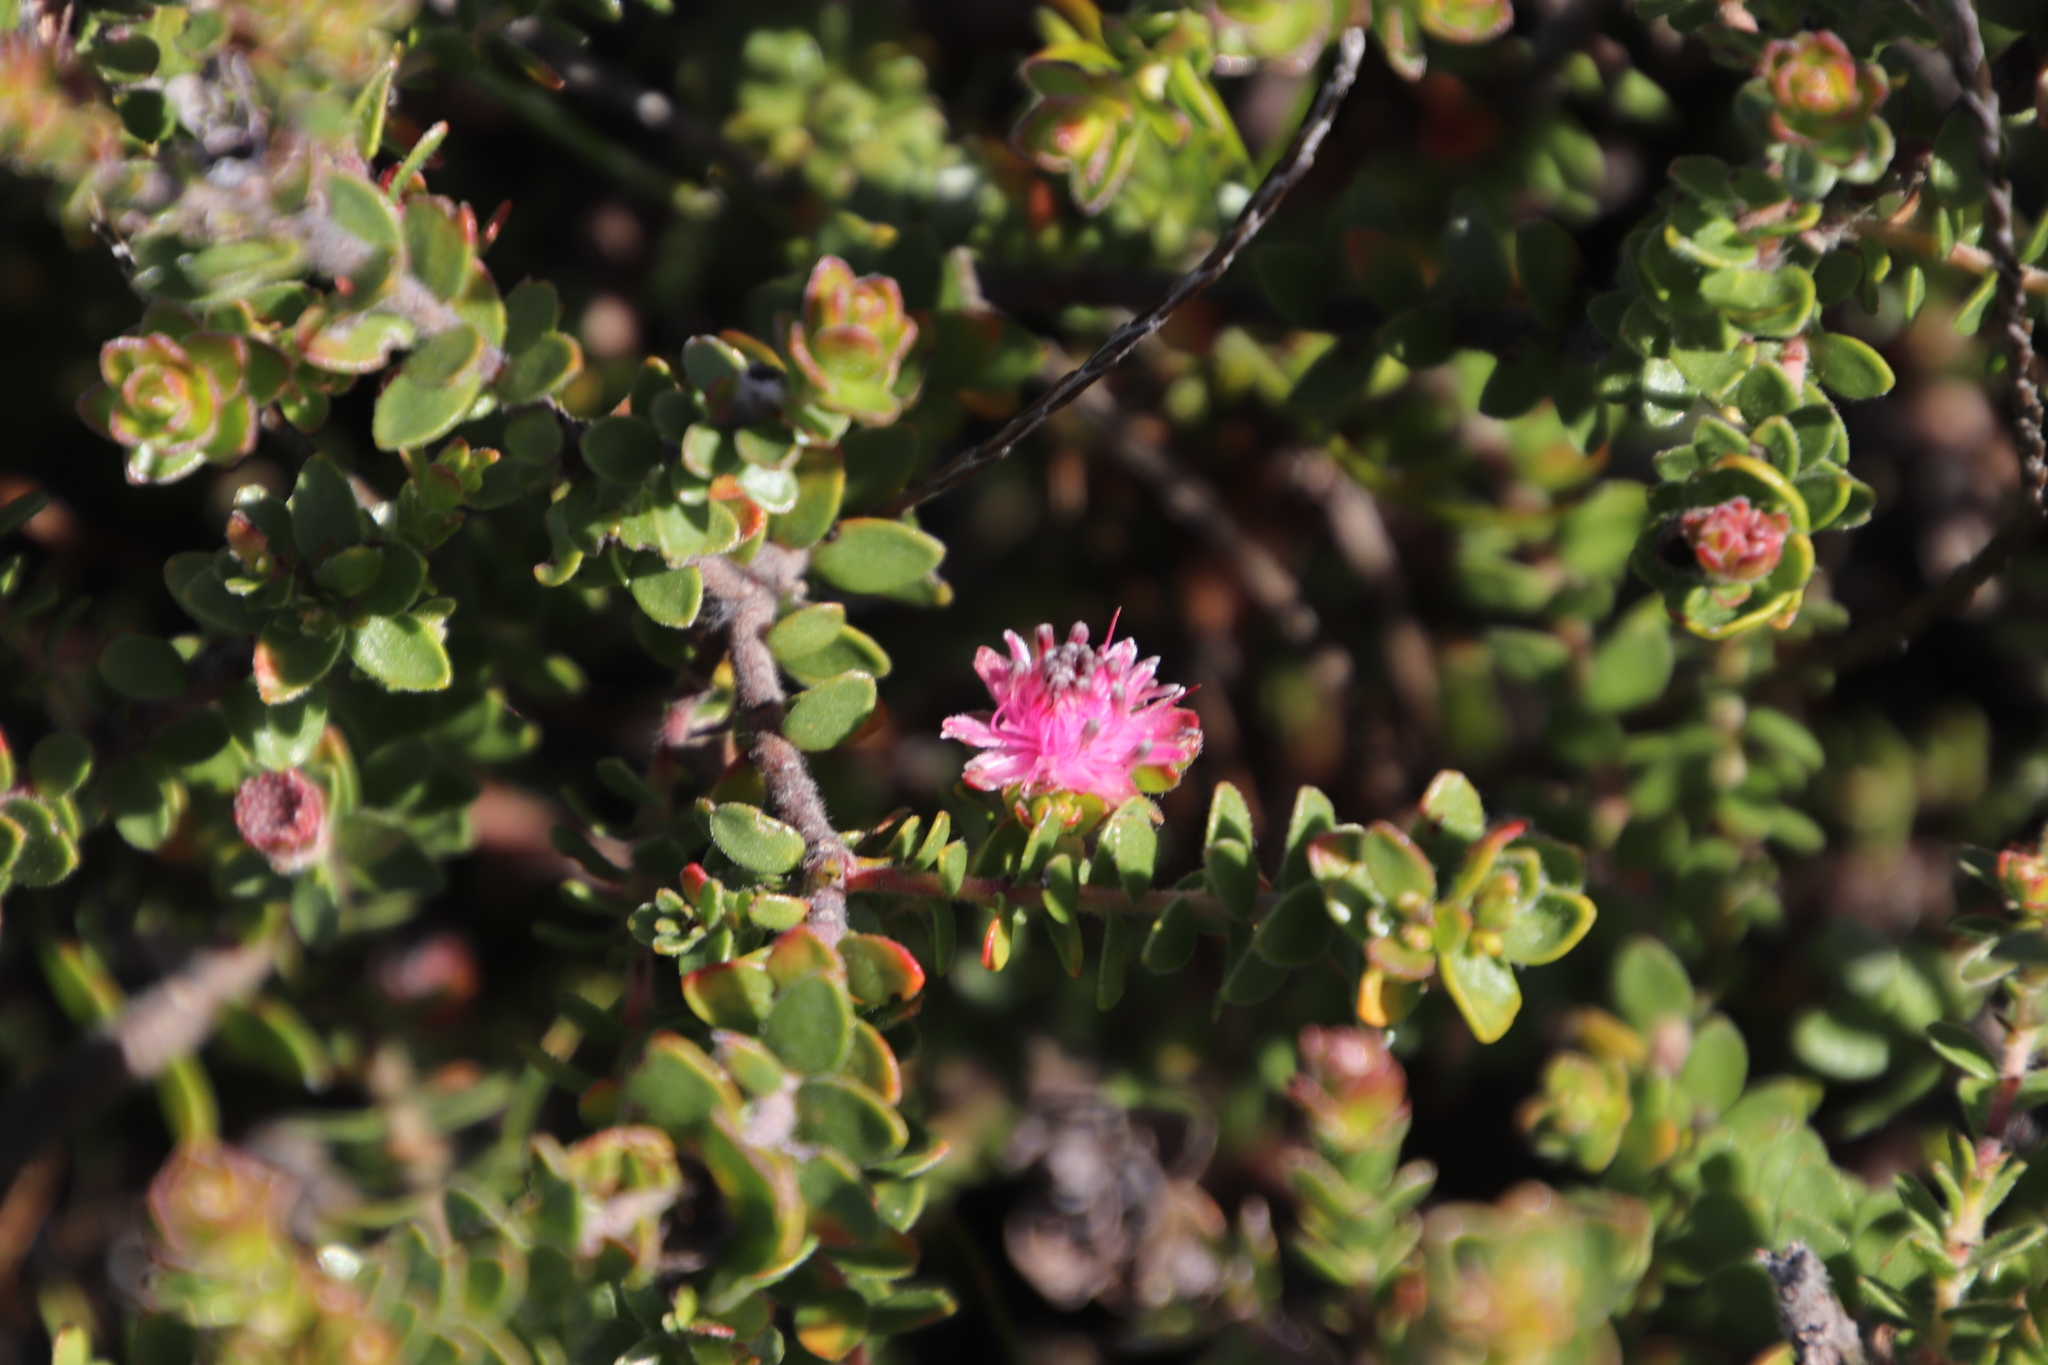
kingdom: Plantae
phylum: Tracheophyta
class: Magnoliopsida
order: Proteales
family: Proteaceae
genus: Diastella
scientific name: Diastella divaricata
